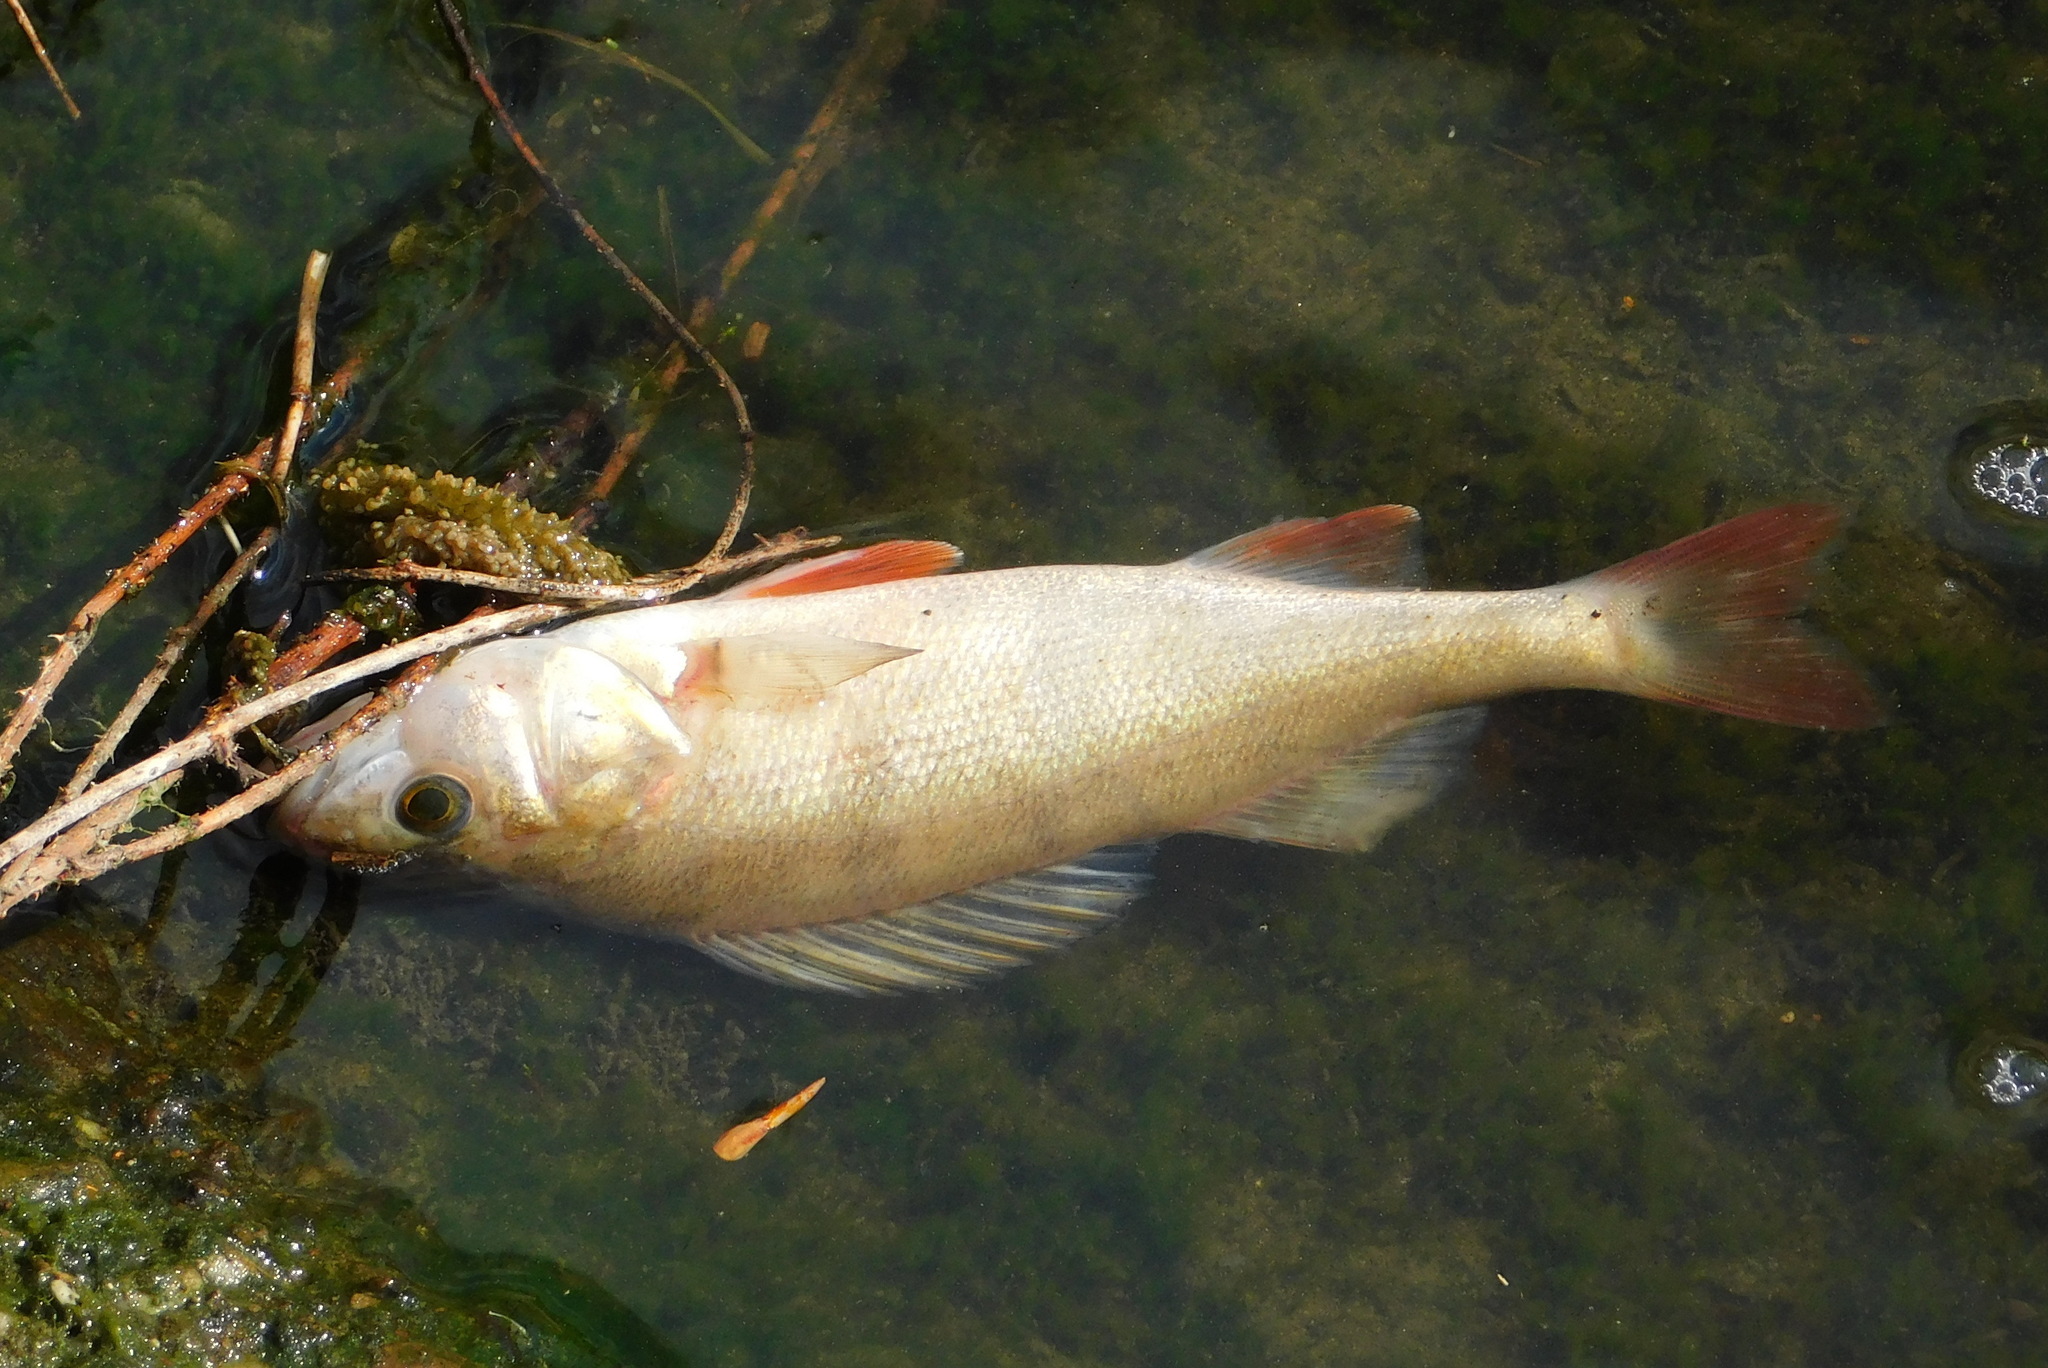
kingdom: Animalia
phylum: Chordata
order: Perciformes
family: Percidae
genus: Perca
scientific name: Perca fluviatilis
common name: Perch
